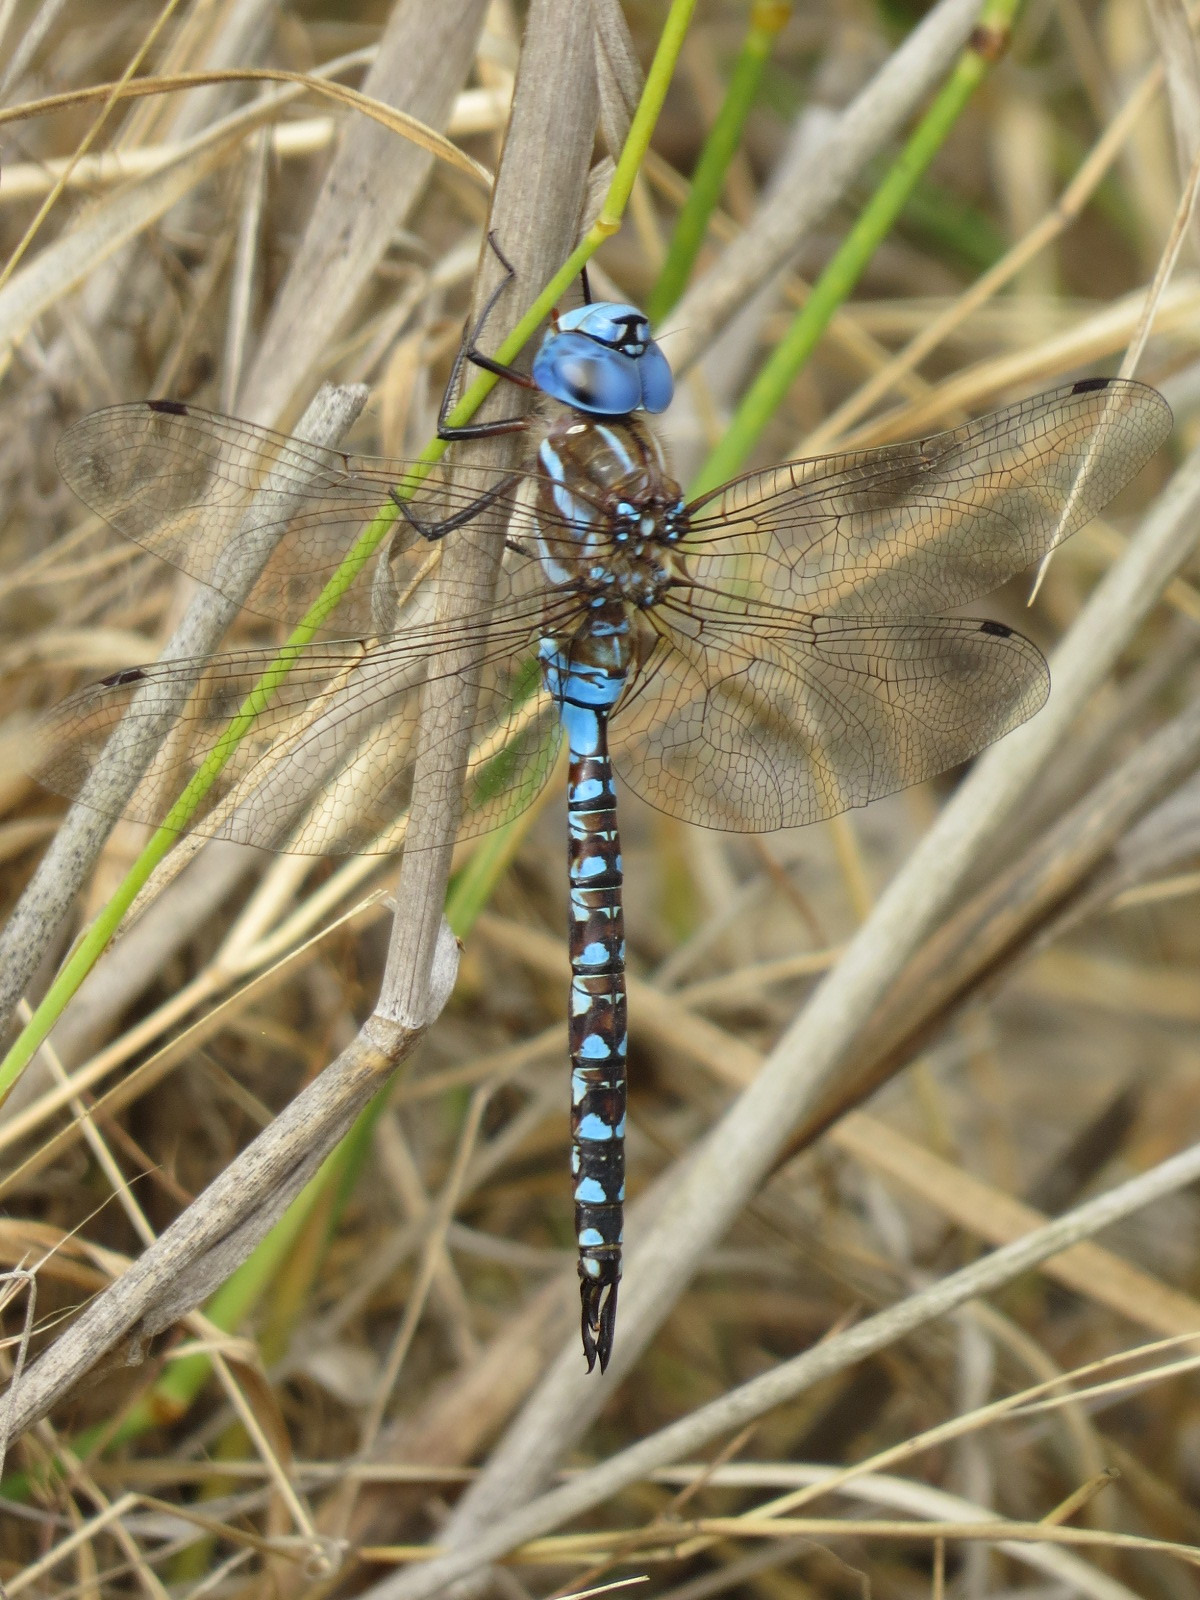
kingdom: Animalia
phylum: Arthropoda
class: Insecta
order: Odonata
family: Aeshnidae
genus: Rhionaeschna
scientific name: Rhionaeschna multicolor
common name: Blue-eyed darner
